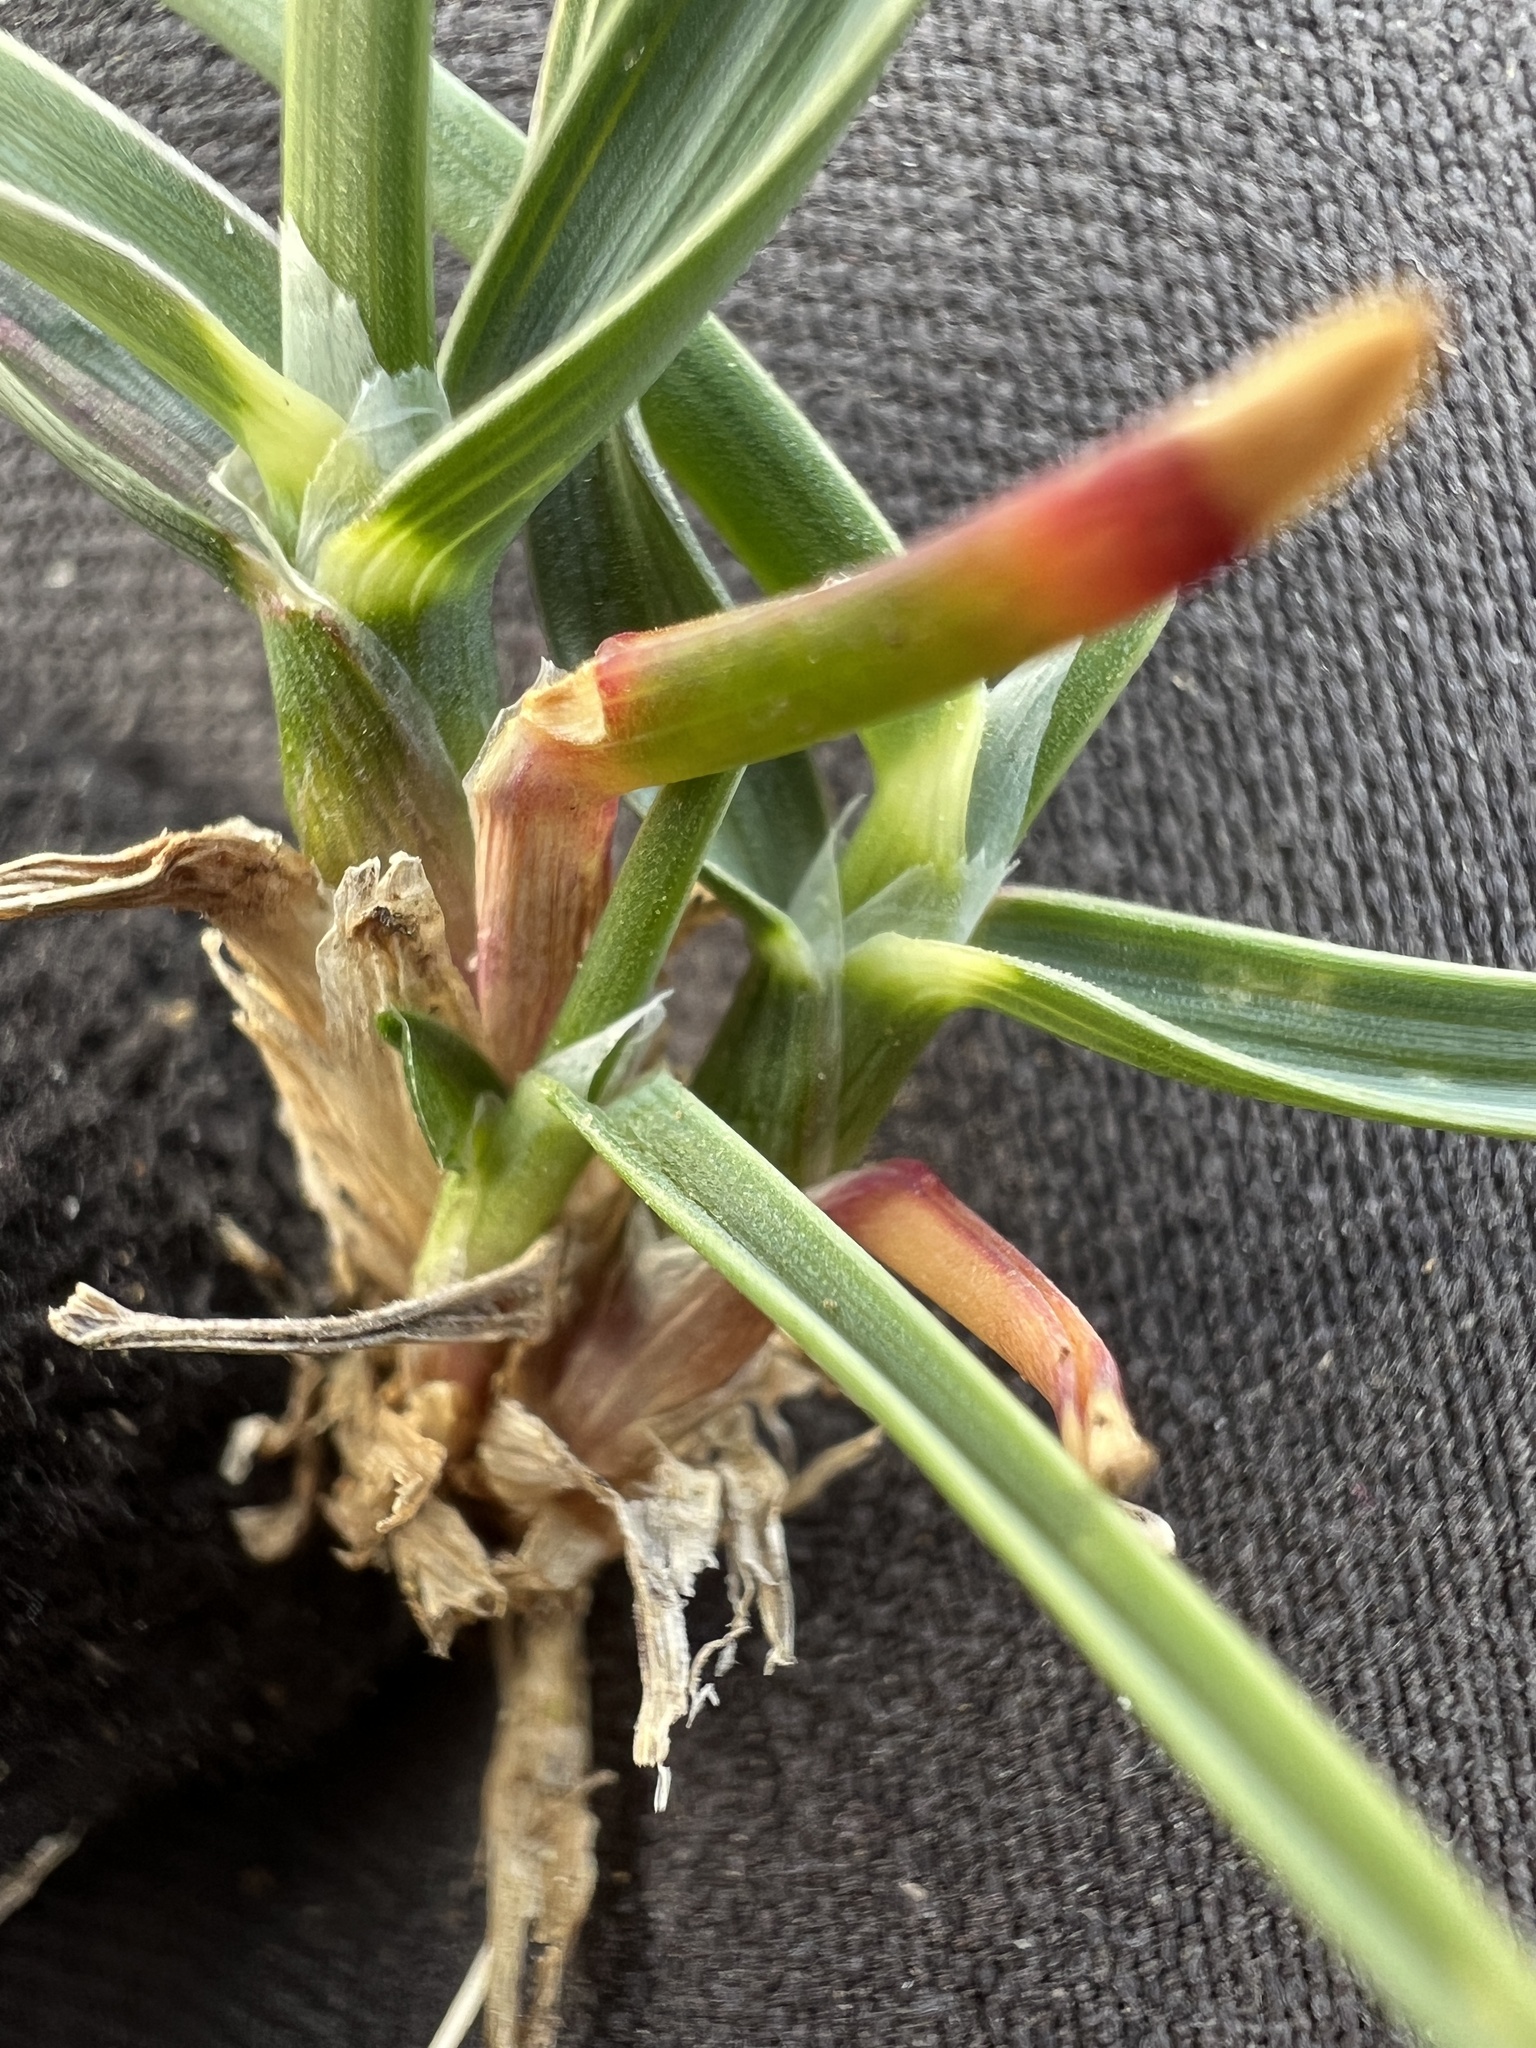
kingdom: Plantae
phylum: Tracheophyta
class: Liliopsida
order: Poales
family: Poaceae
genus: Poa
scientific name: Poa curtifolia
